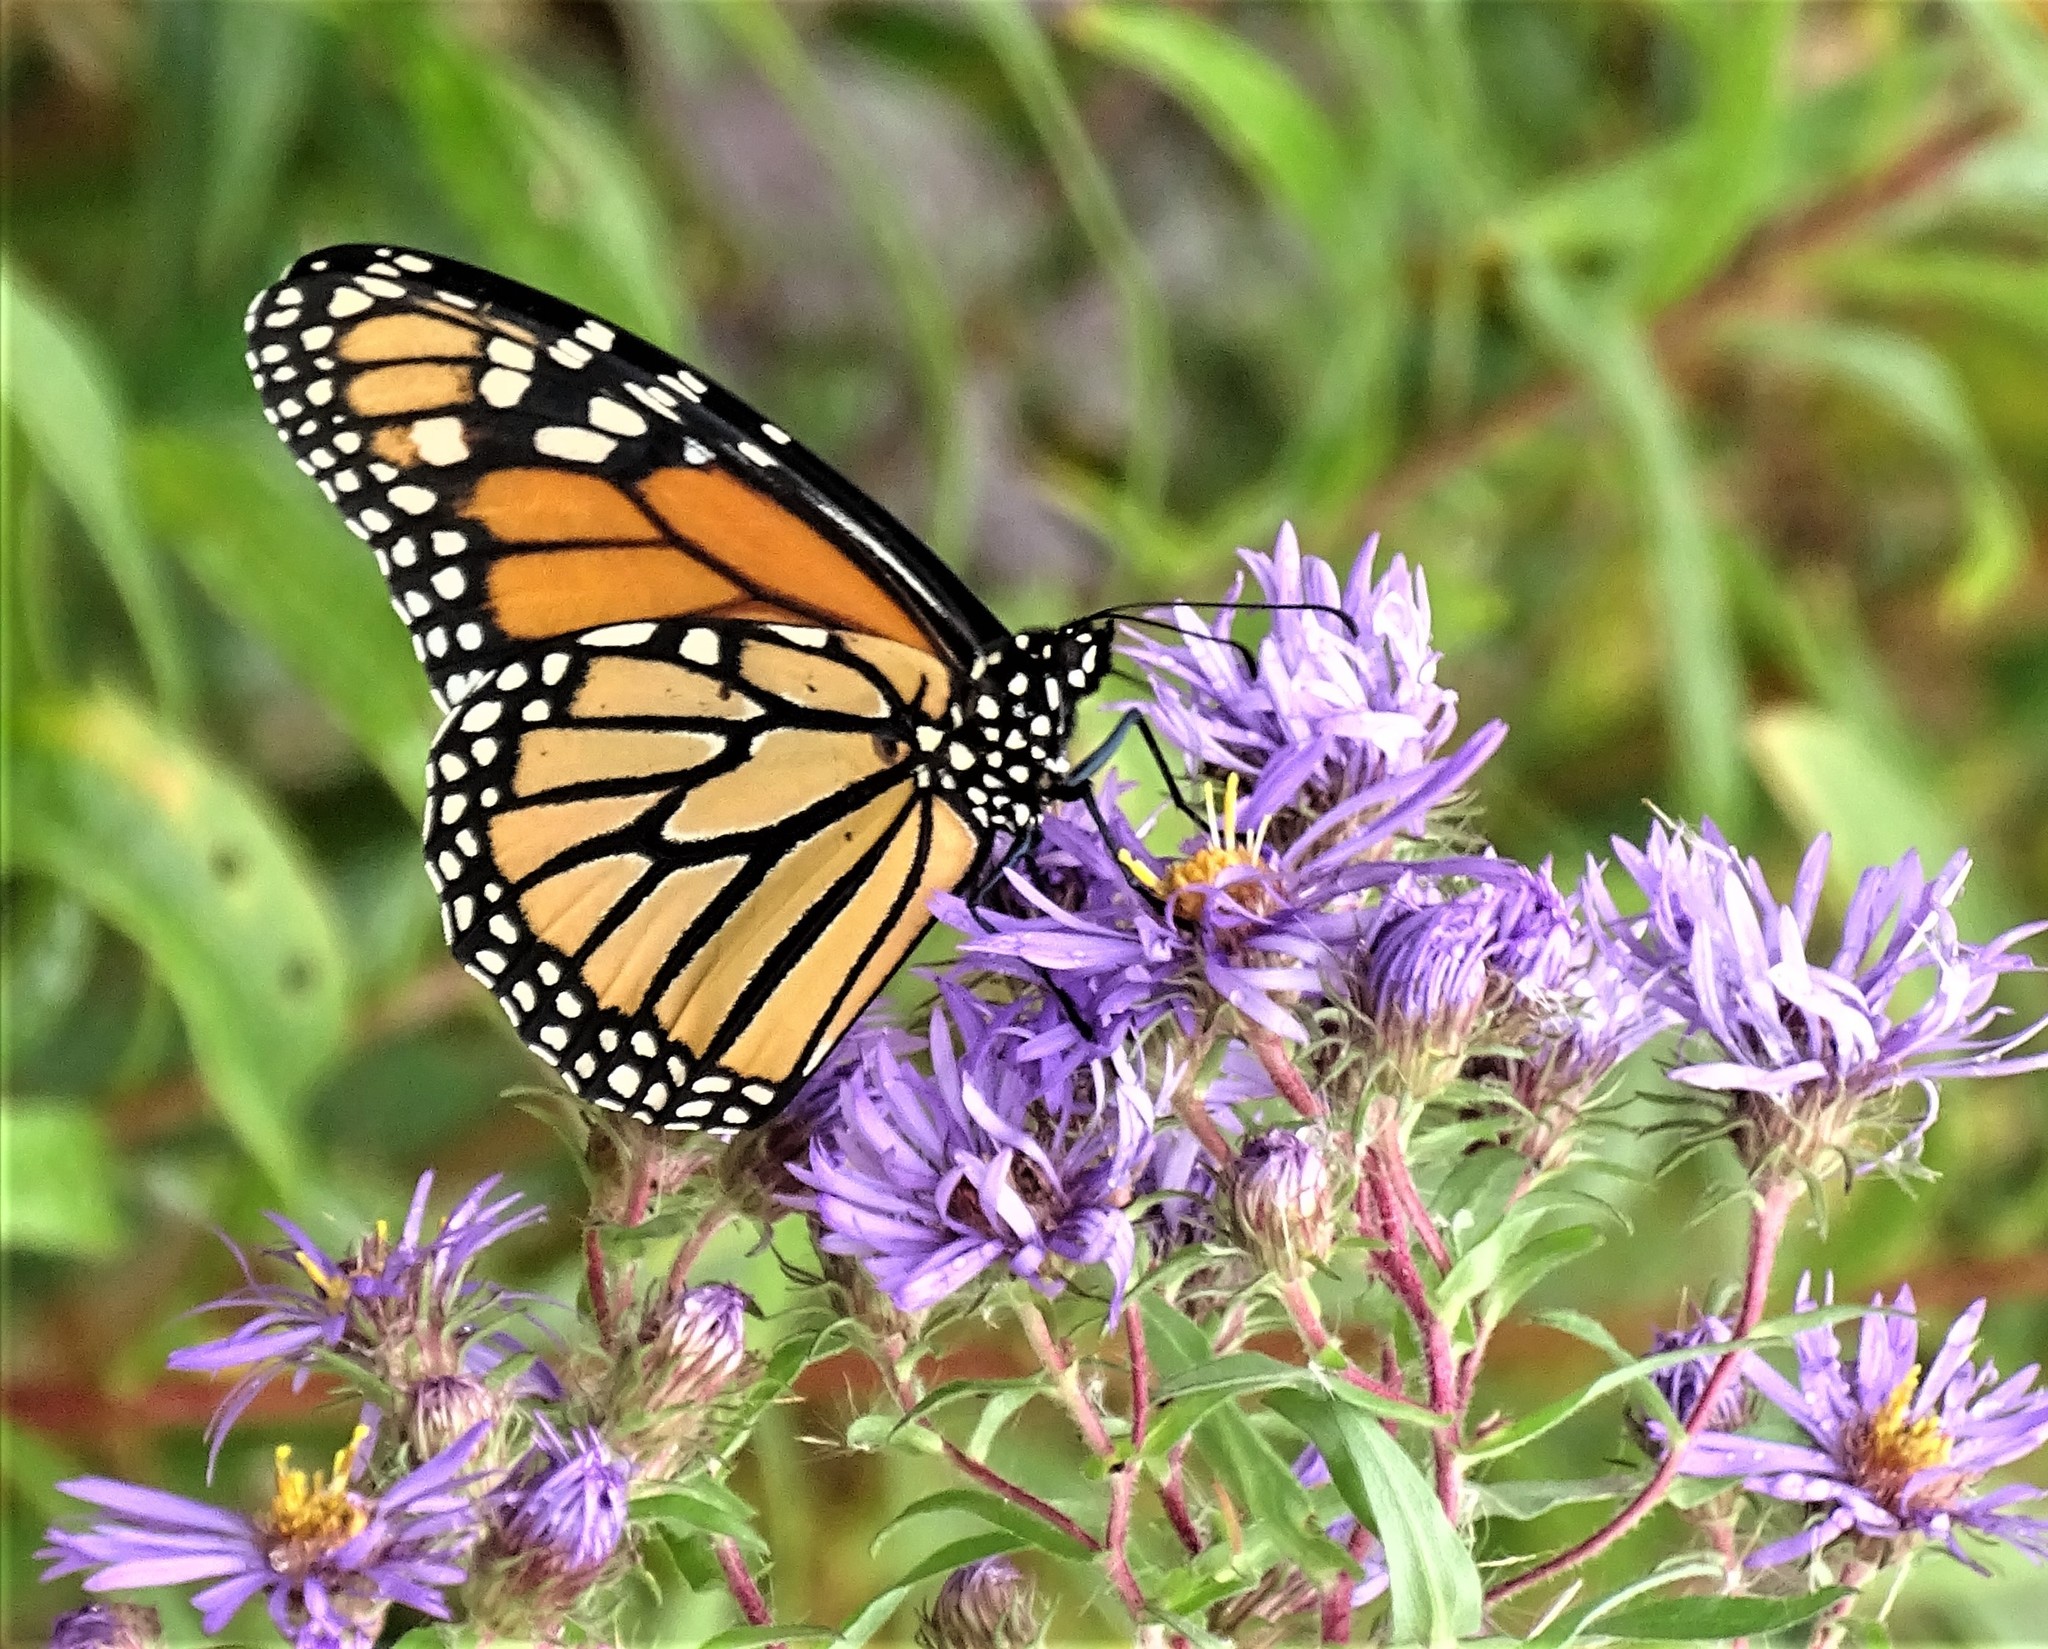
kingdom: Animalia
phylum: Arthropoda
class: Insecta
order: Lepidoptera
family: Nymphalidae
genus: Danaus
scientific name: Danaus plexippus
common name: Monarch
